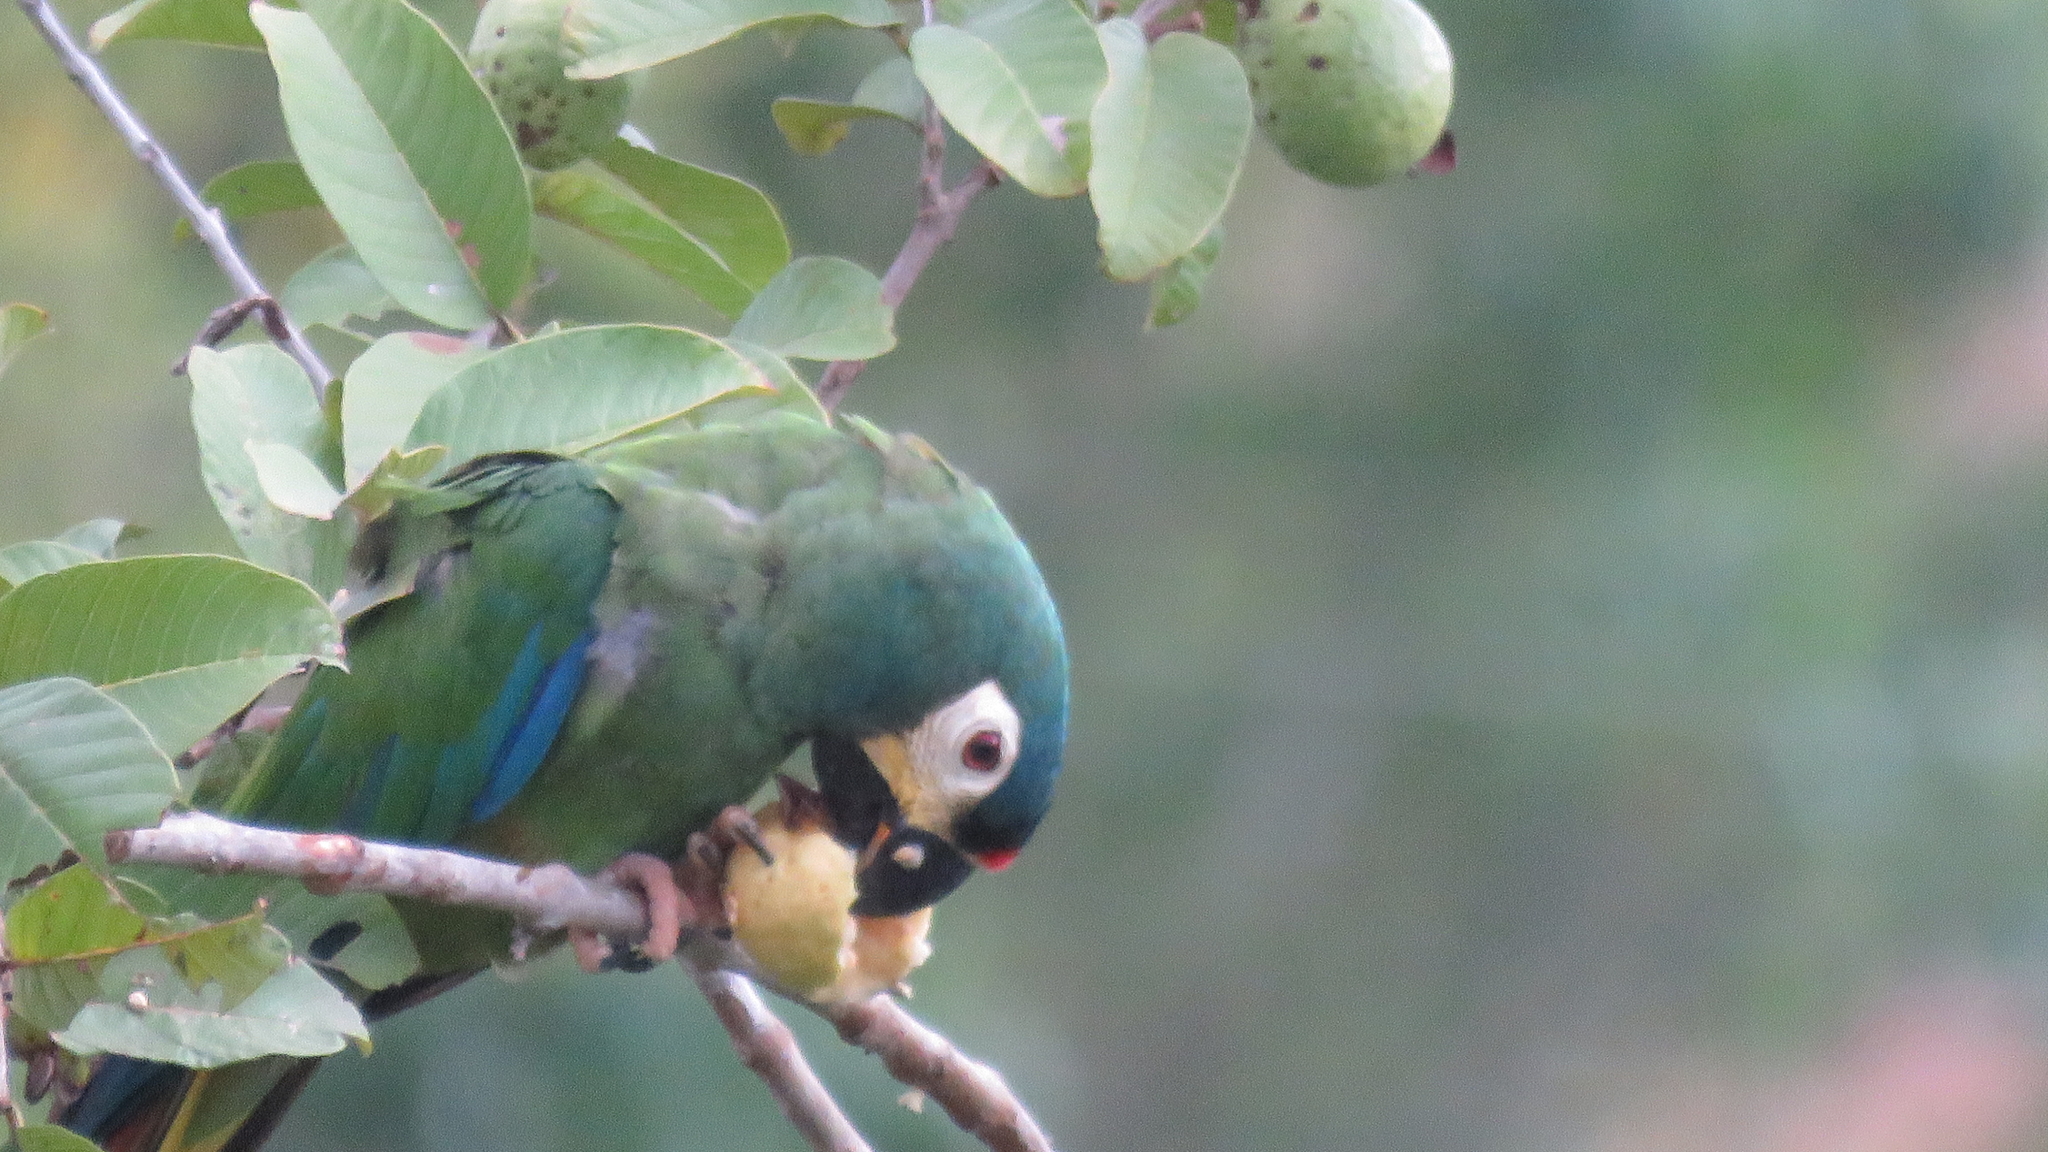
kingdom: Animalia
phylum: Chordata
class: Aves
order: Psittaciformes
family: Psittacidae
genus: Primolius
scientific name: Primolius maracana
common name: Blue-winged macaw
